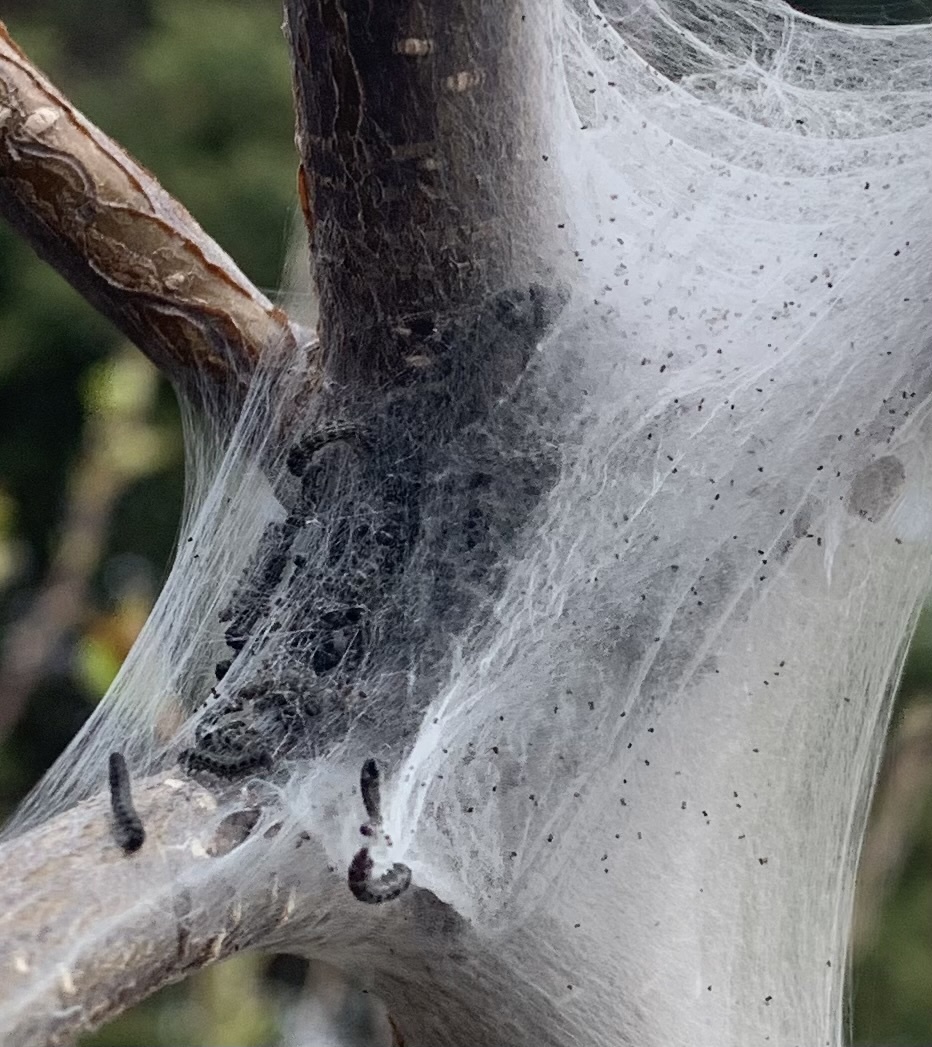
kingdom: Animalia
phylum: Arthropoda
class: Insecta
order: Lepidoptera
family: Lasiocampidae
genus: Malacosoma
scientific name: Malacosoma americana
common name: Eastern tent caterpillar moth
